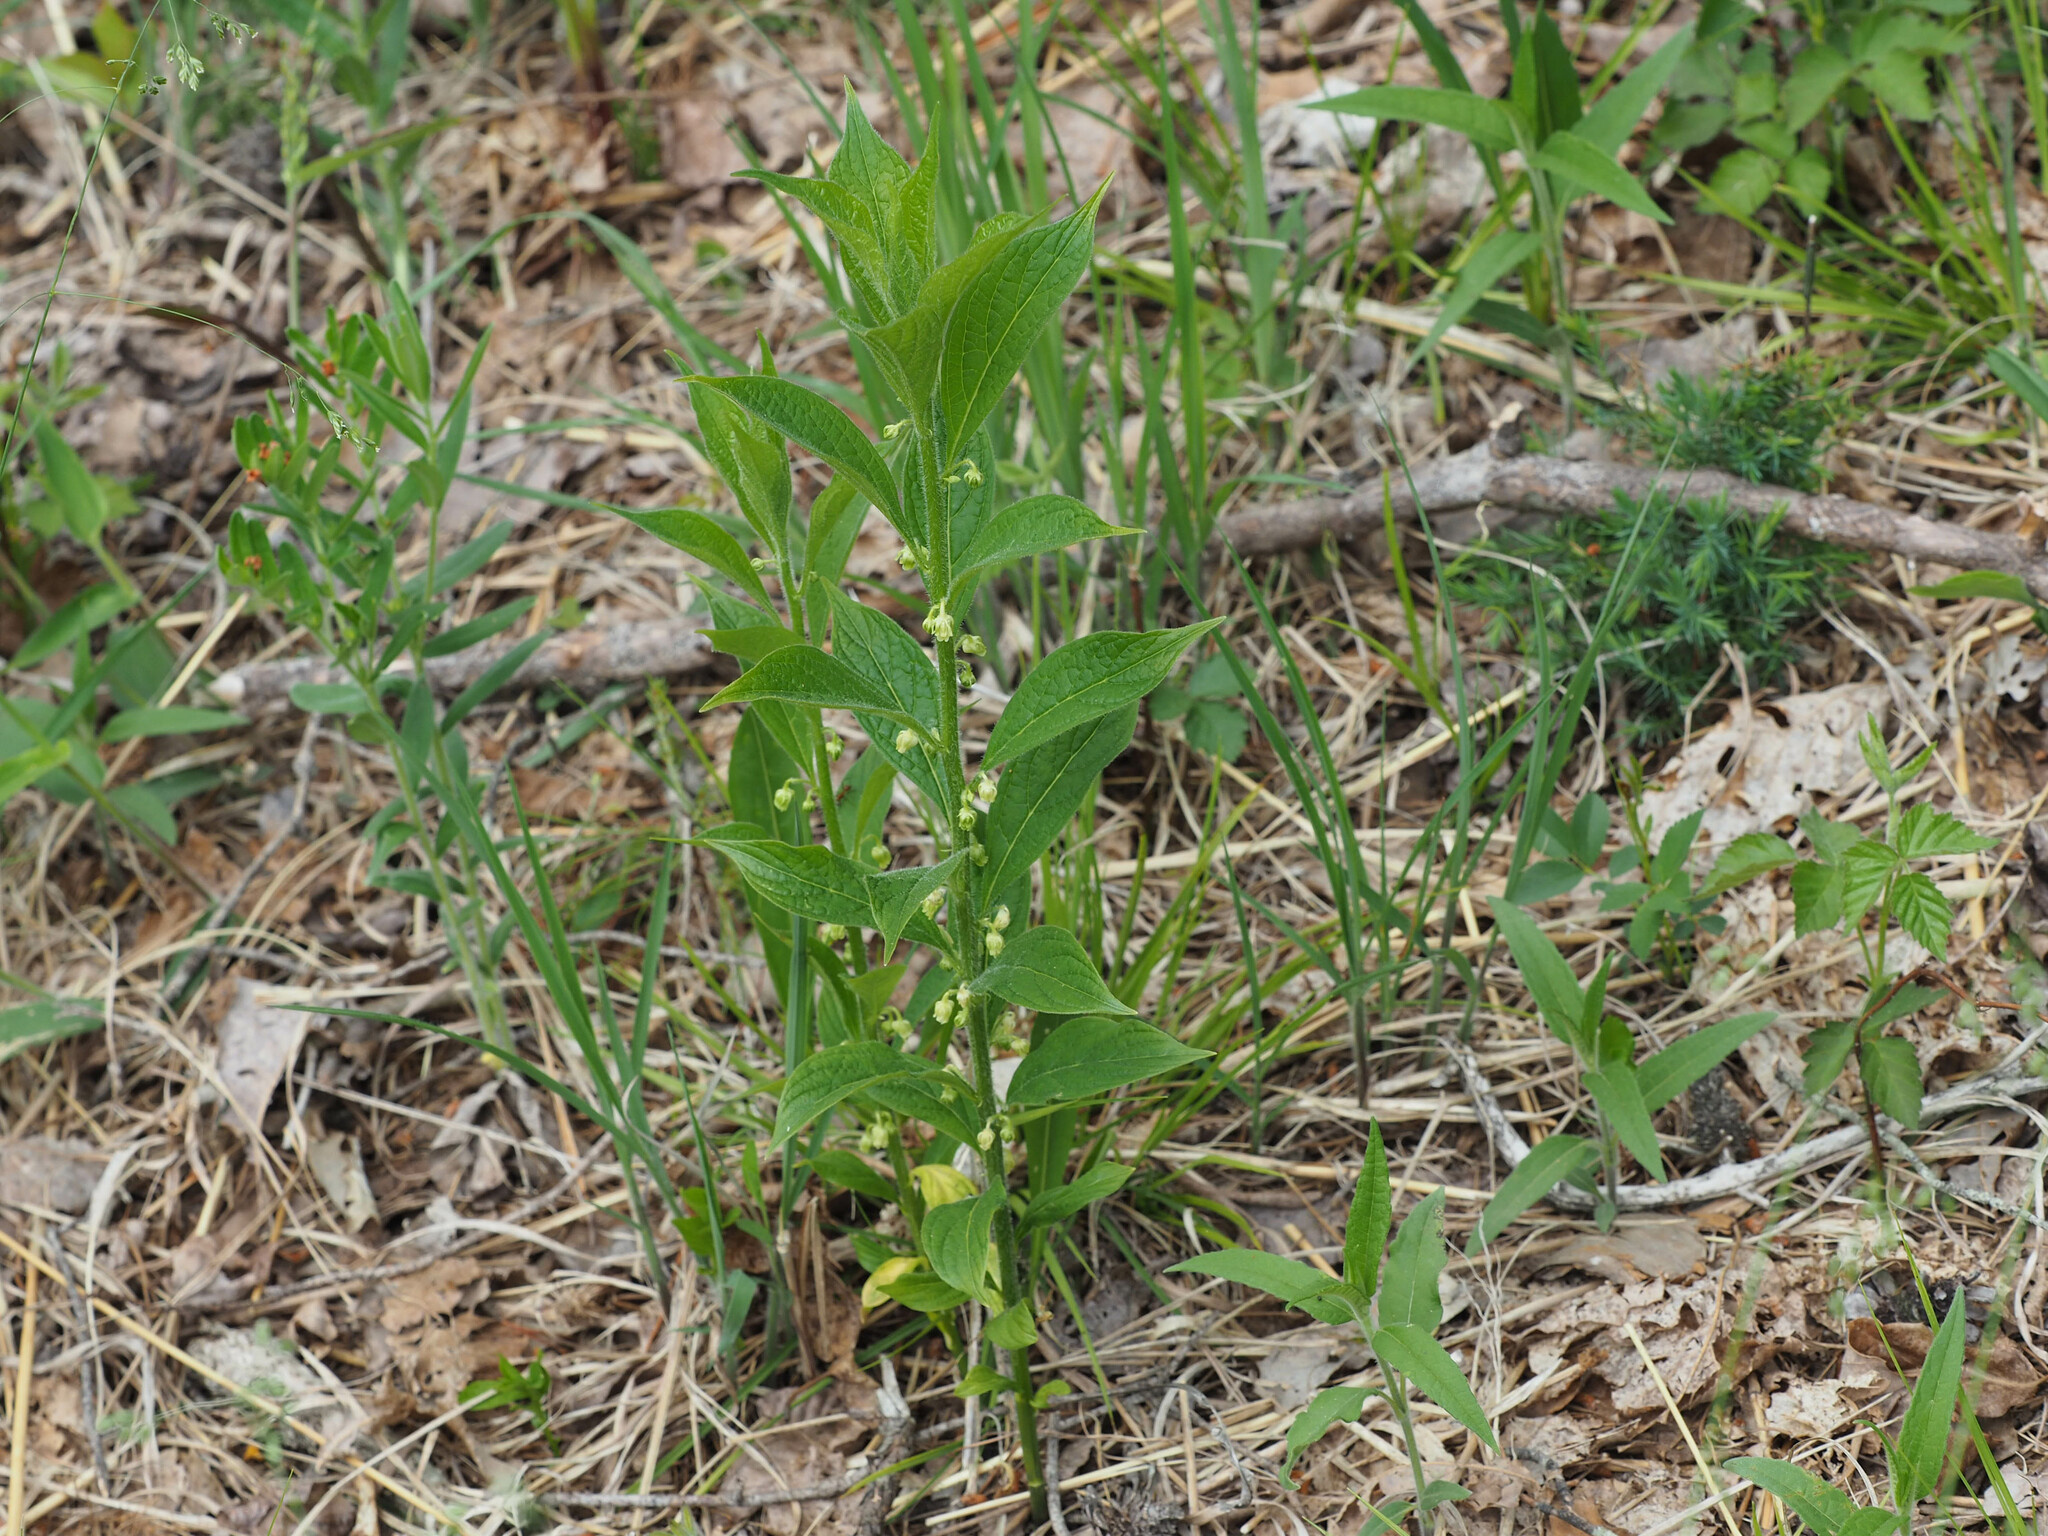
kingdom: Plantae
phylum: Tracheophyta
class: Magnoliopsida
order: Malpighiales
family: Violaceae
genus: Cubelium
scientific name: Cubelium concolor
